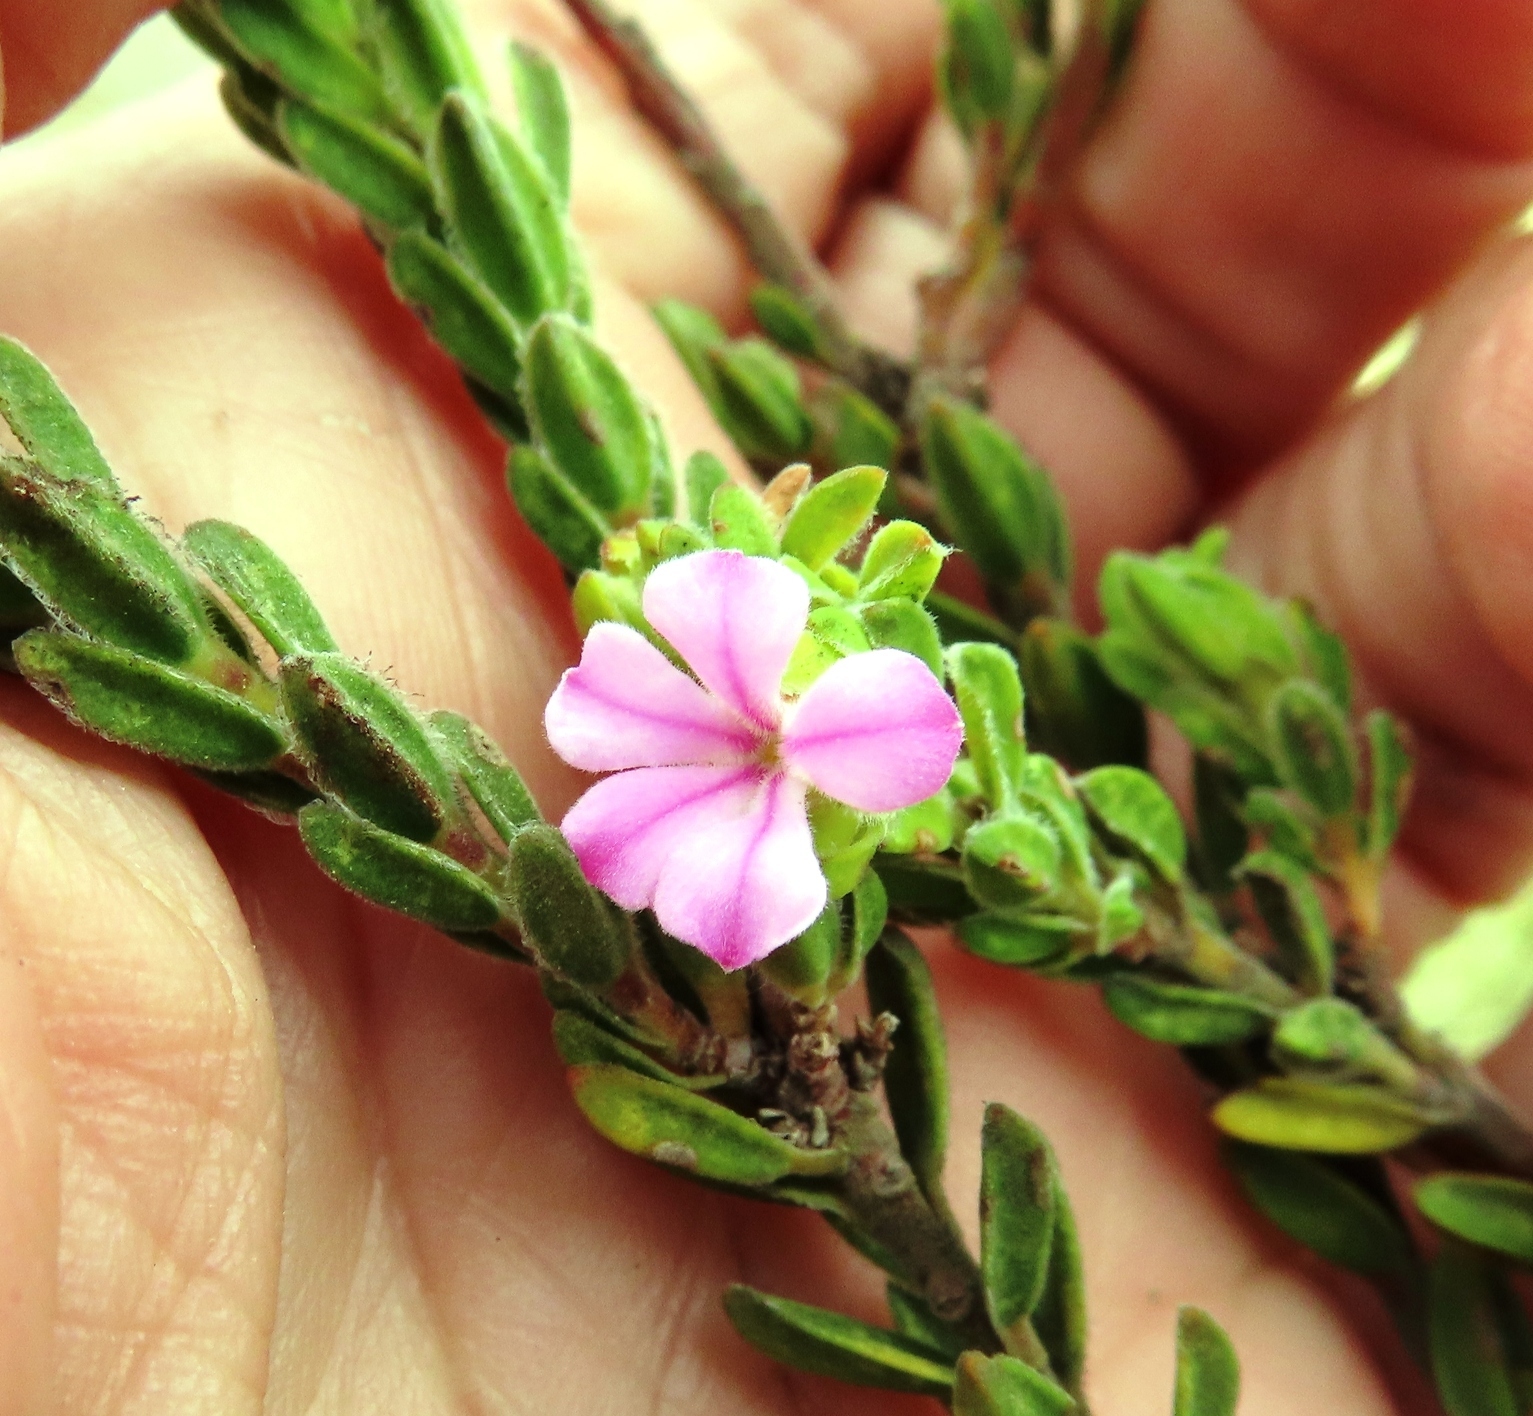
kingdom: Plantae
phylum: Tracheophyta
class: Magnoliopsida
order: Sapindales
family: Rutaceae
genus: Acmadenia
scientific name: Acmadenia mundiana
